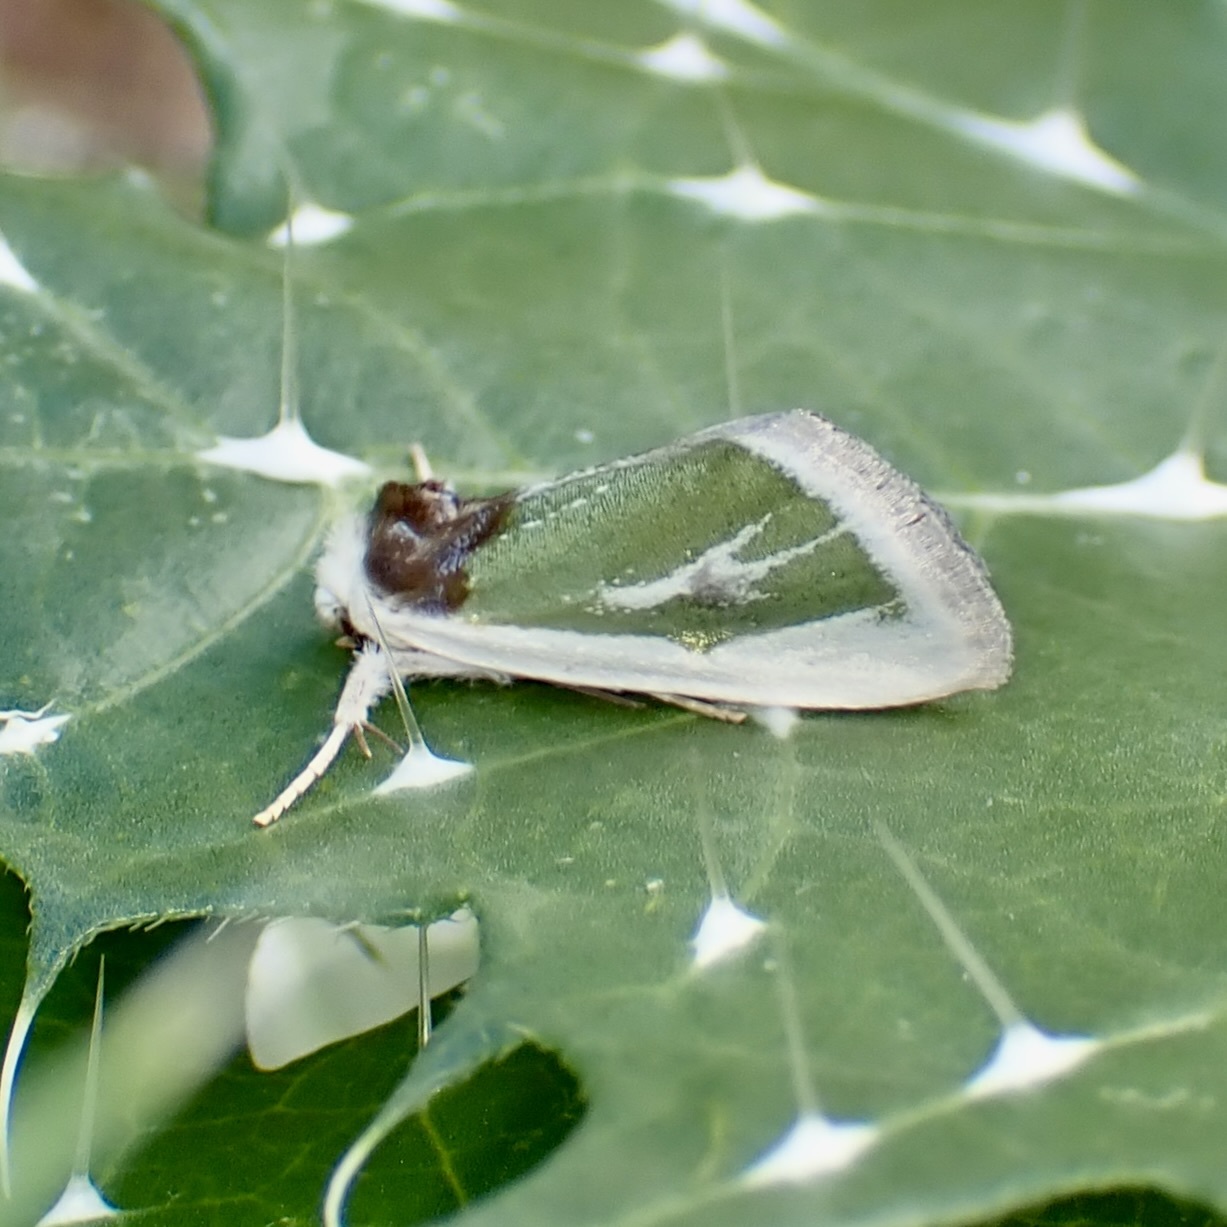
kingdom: Animalia
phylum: Arthropoda
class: Insecta
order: Lepidoptera
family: Noctuidae
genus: Neumoegenia
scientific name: Neumoegenia poetica
